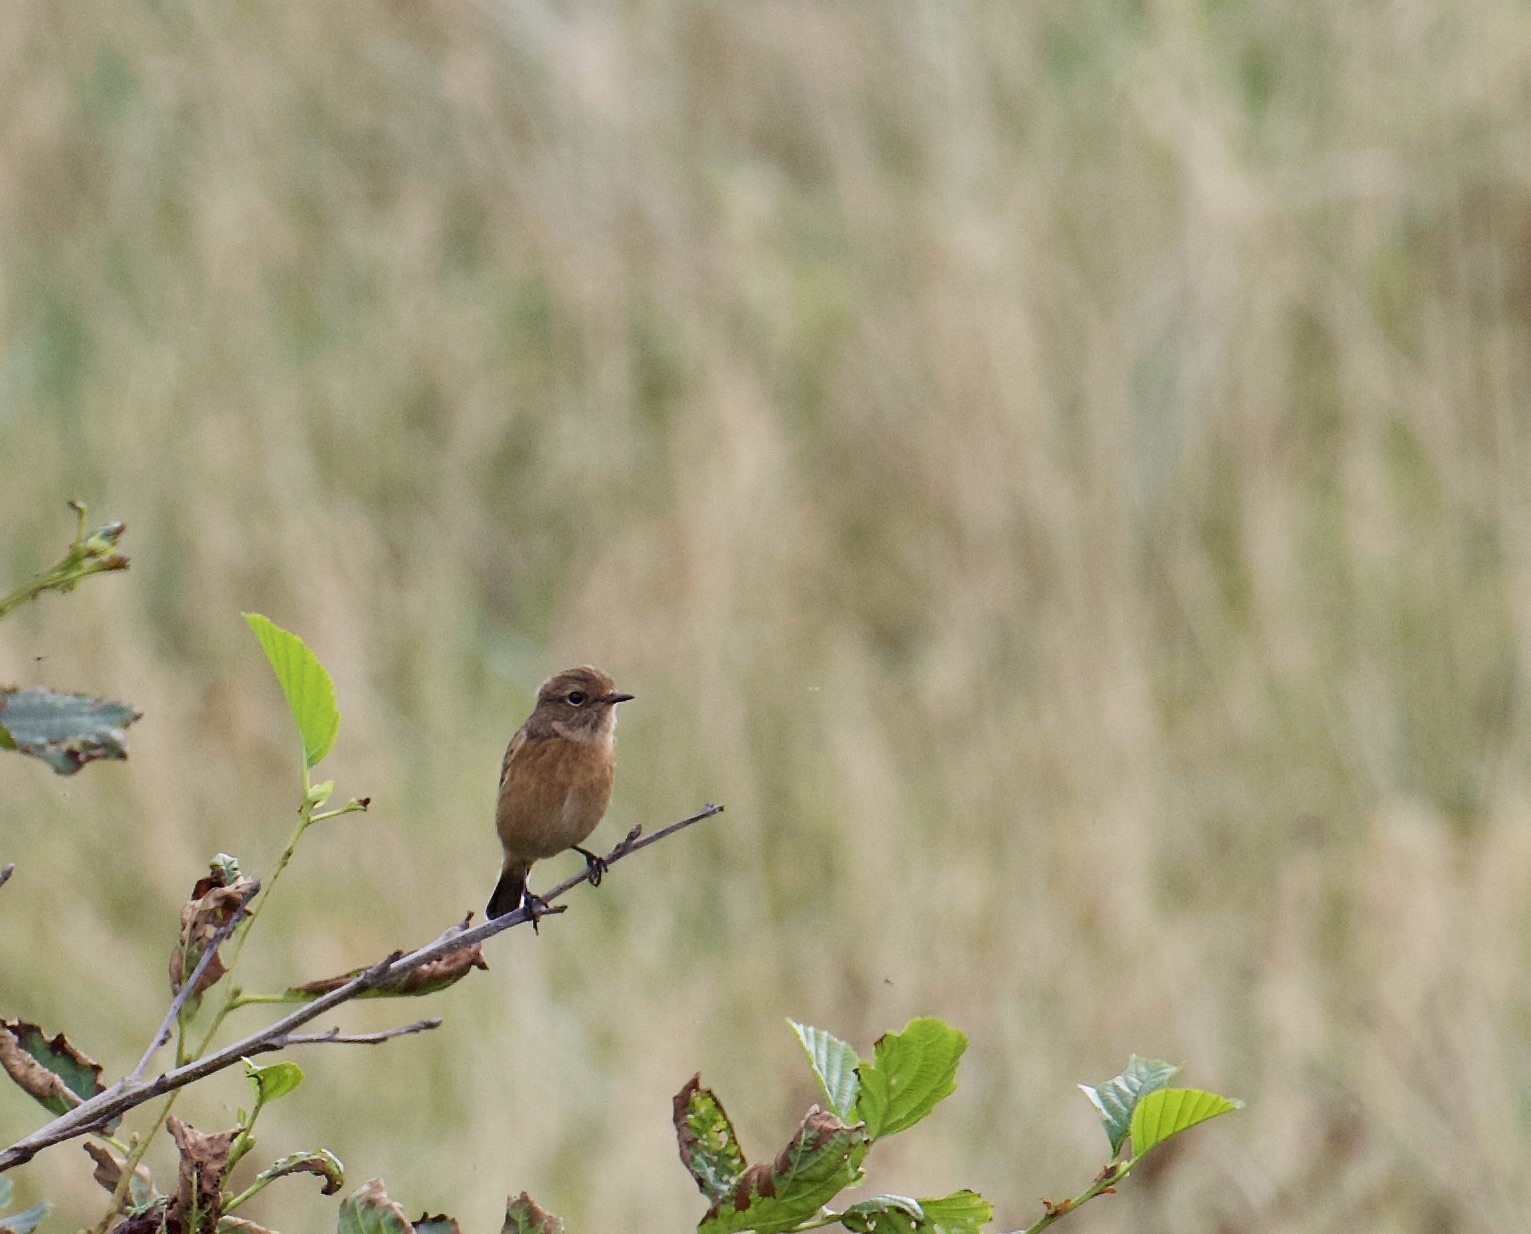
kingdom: Animalia
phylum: Chordata
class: Aves
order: Passeriformes
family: Muscicapidae
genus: Saxicola
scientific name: Saxicola rubicola
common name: European stonechat
